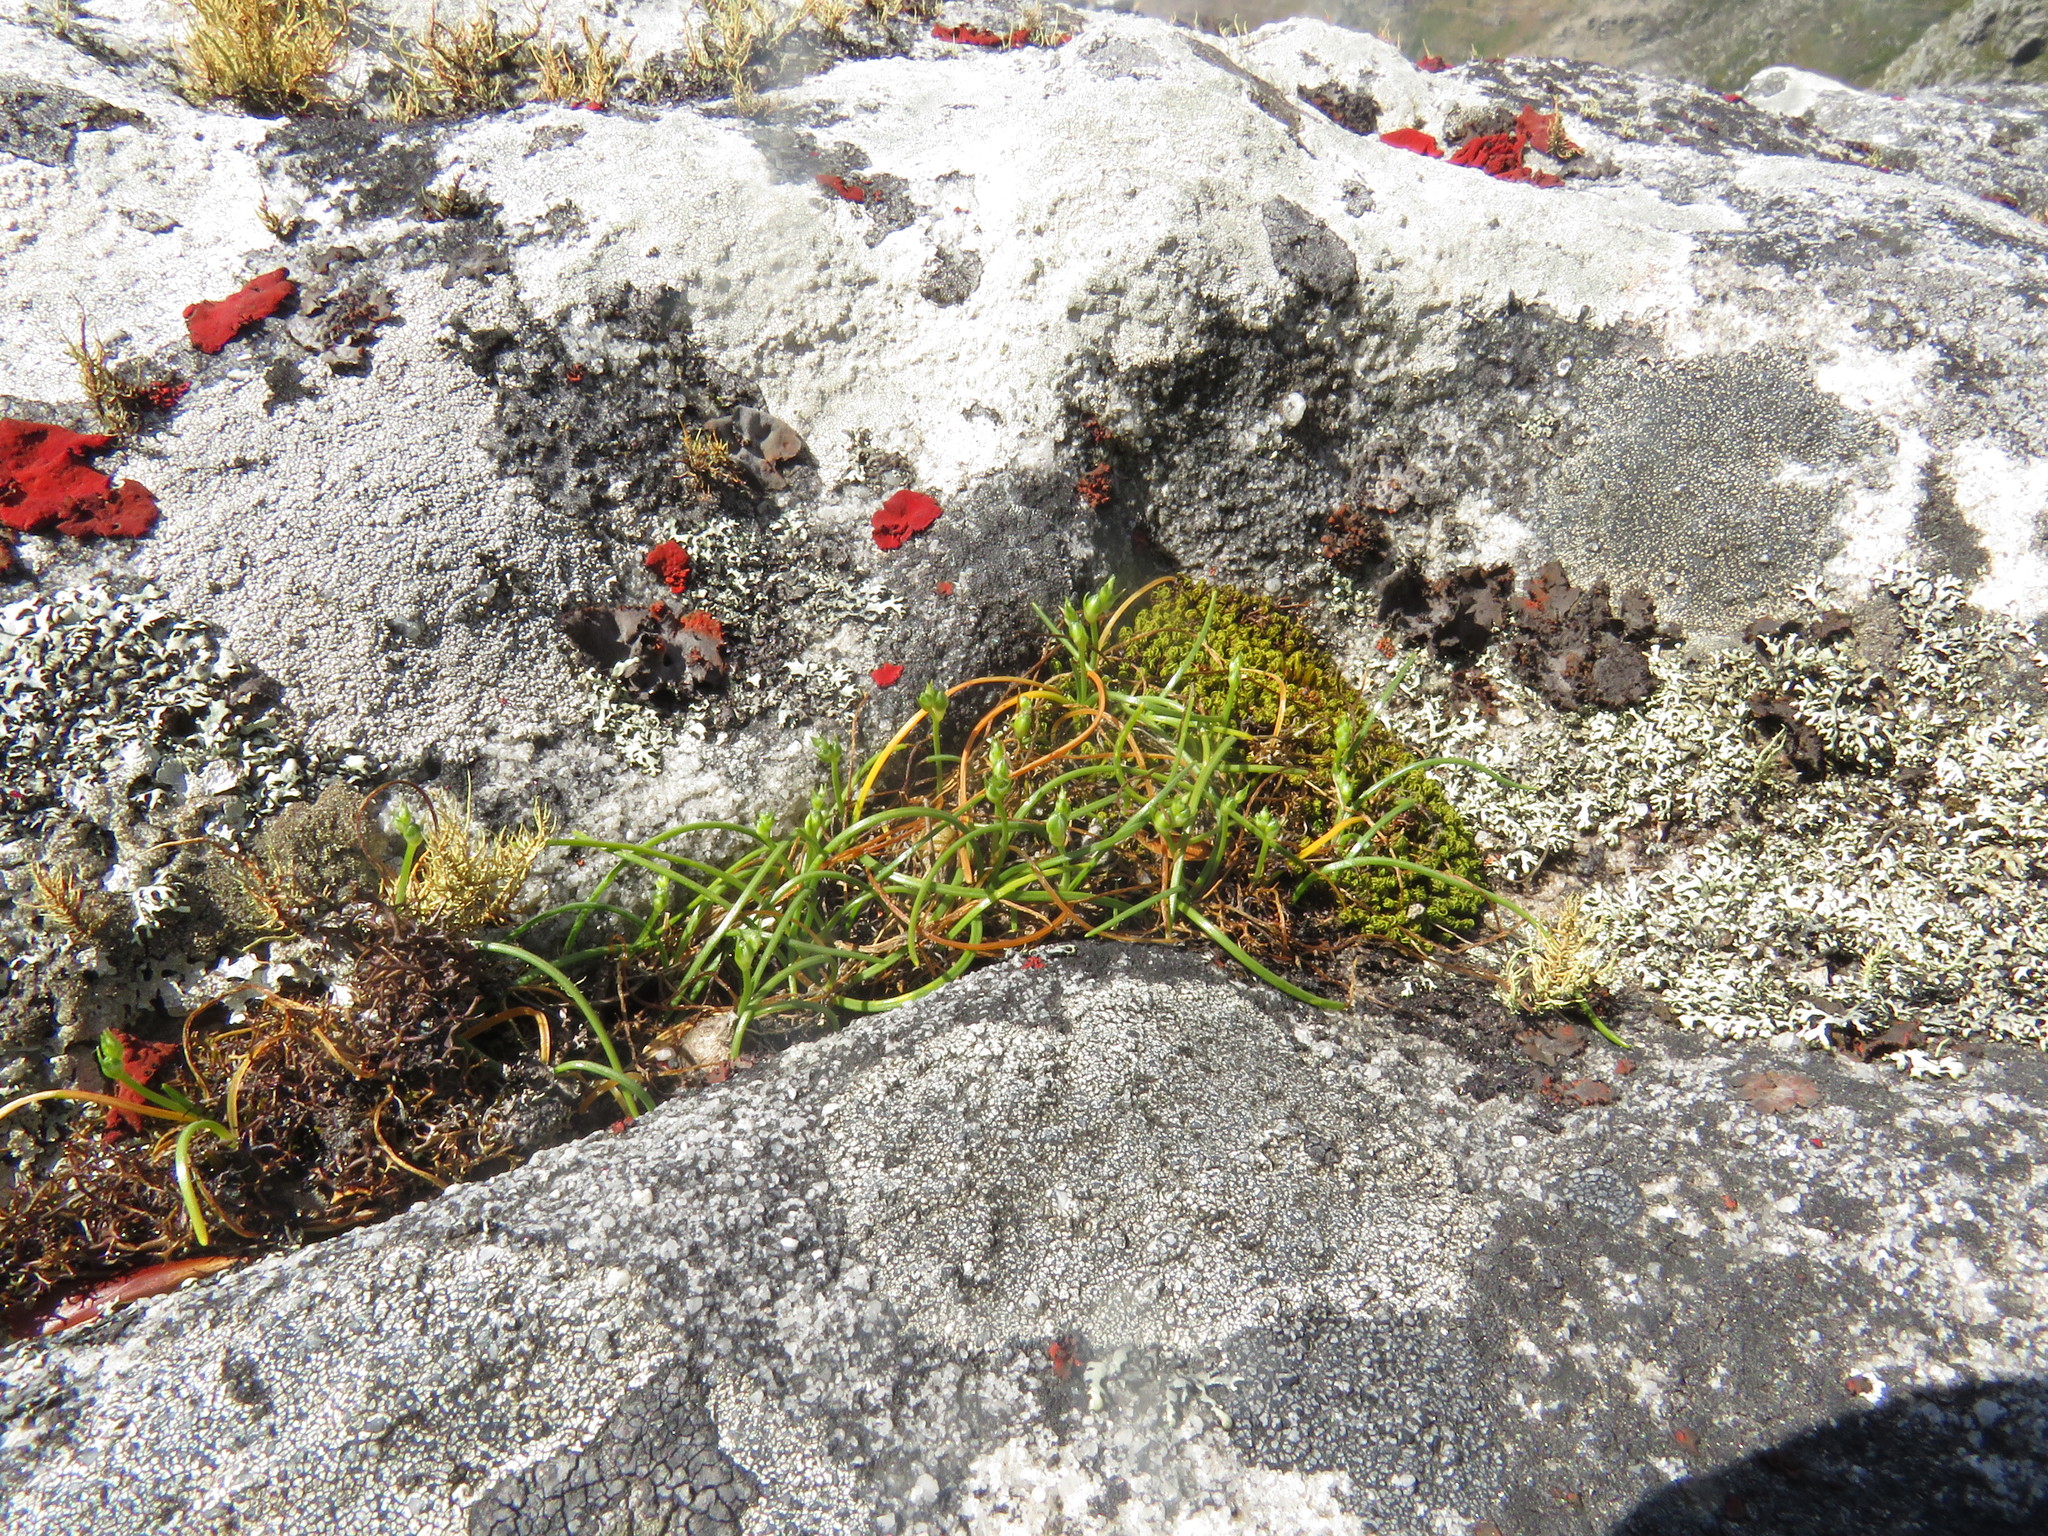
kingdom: Plantae
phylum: Tracheophyta
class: Liliopsida
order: Asparagales
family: Asparagaceae
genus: Ornithogalum
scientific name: Ornithogalum niveum
